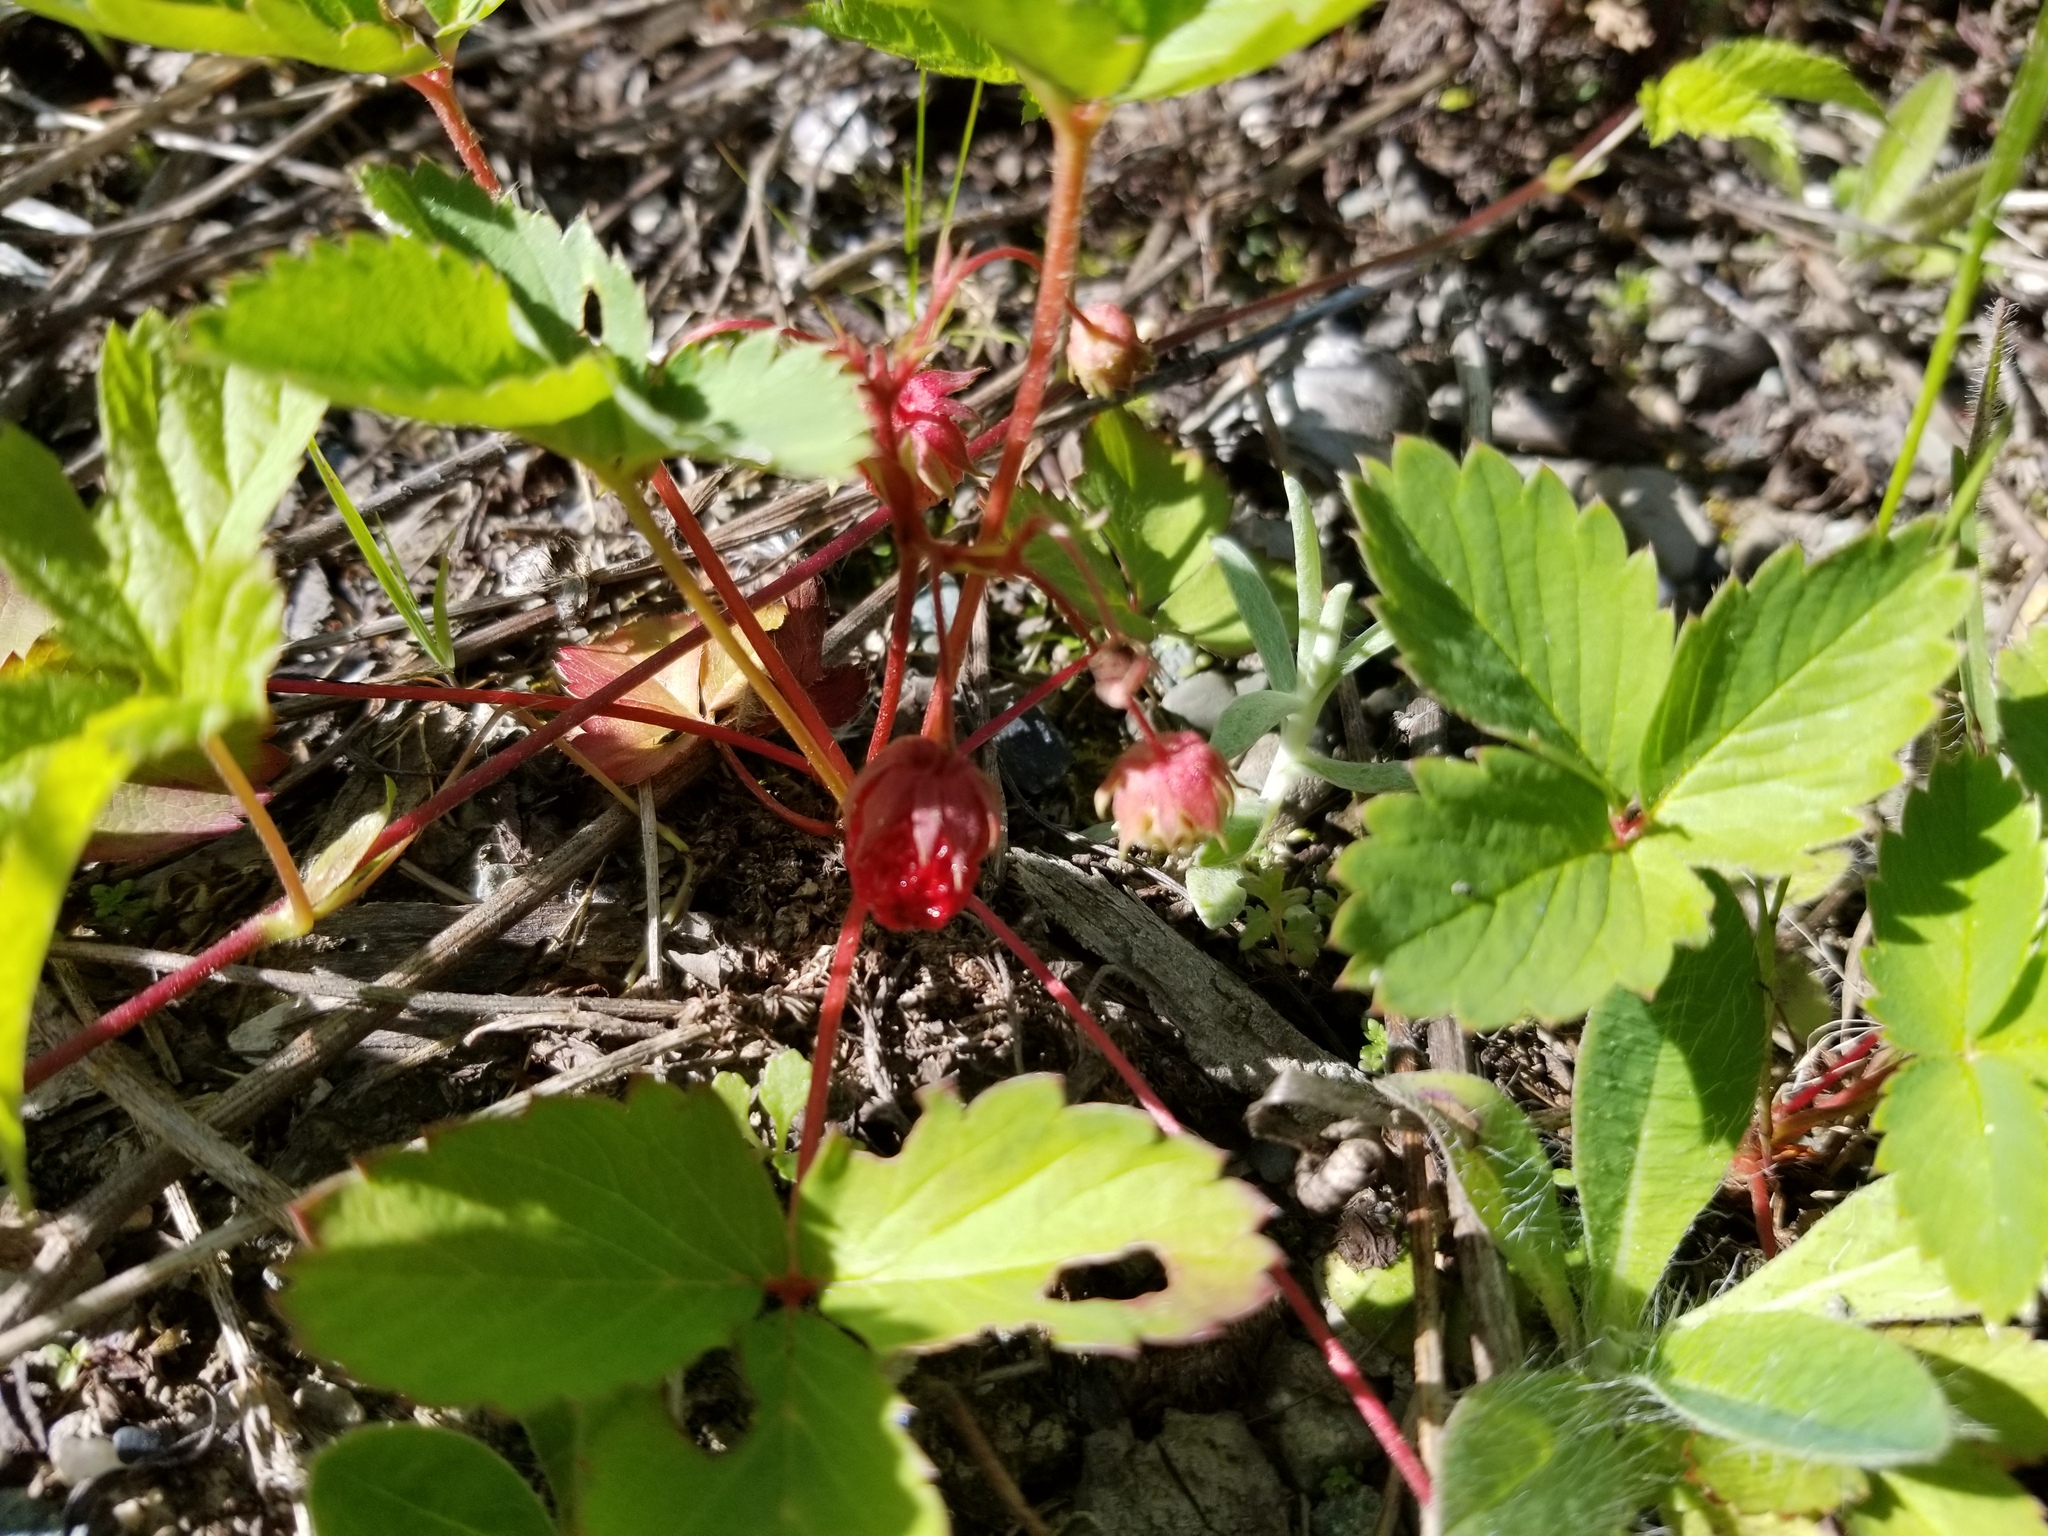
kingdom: Plantae
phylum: Tracheophyta
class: Magnoliopsida
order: Rosales
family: Rosaceae
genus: Fragaria
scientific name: Fragaria virginiana
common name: Thickleaved wild strawberry
